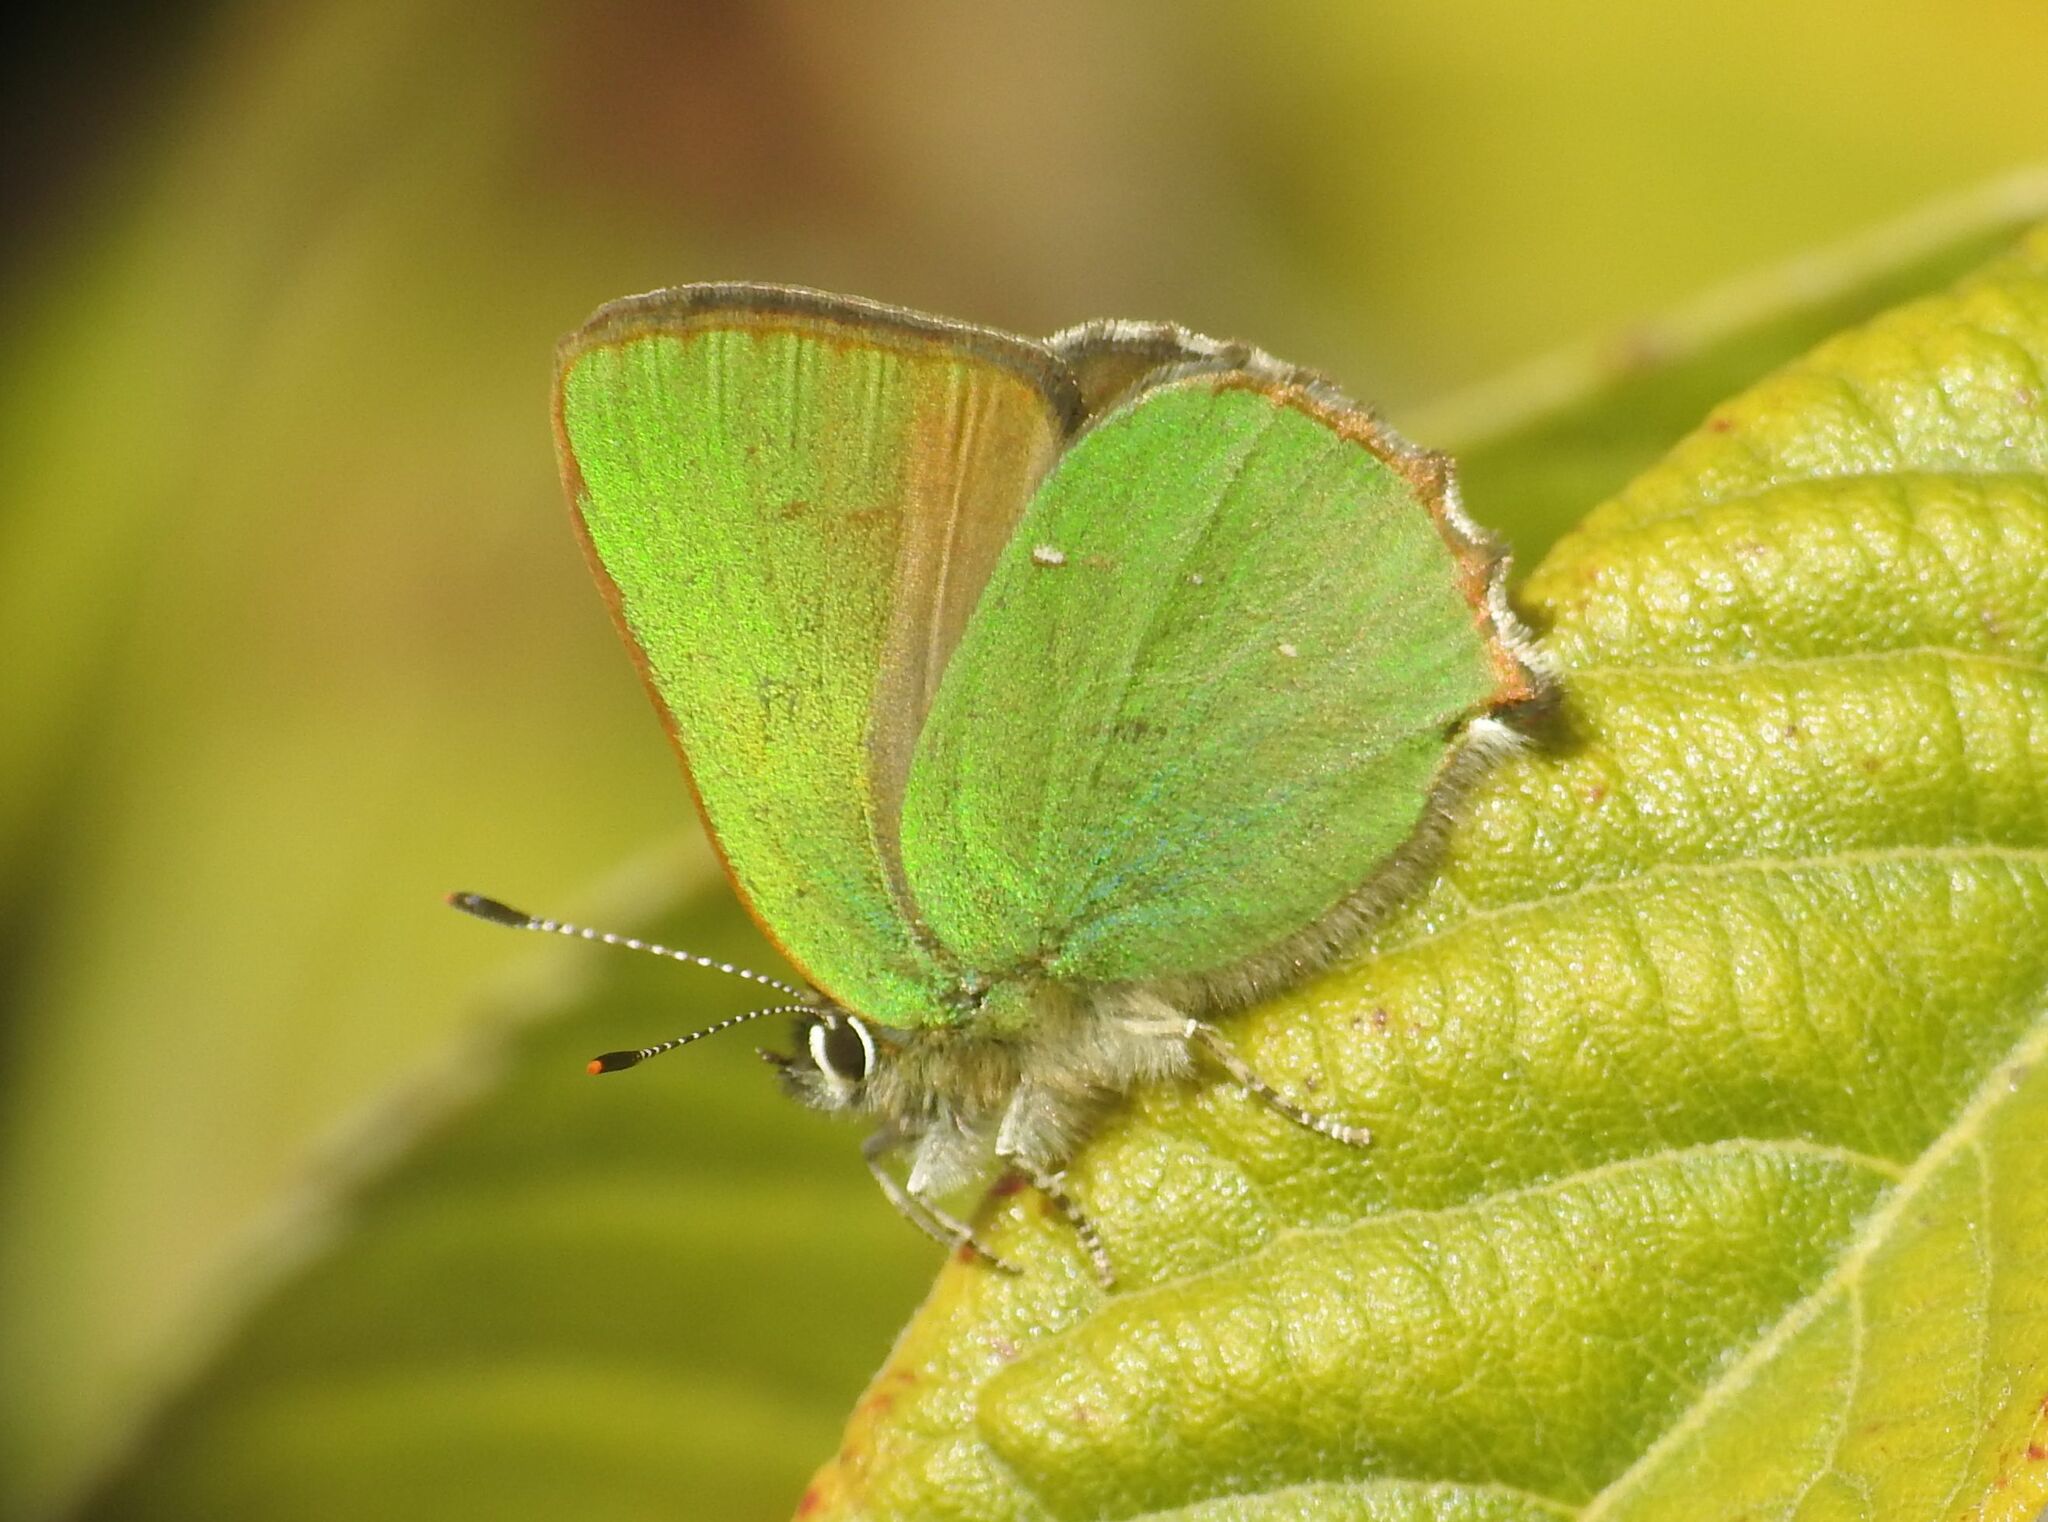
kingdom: Animalia
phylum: Arthropoda
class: Insecta
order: Lepidoptera
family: Lycaenidae
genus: Callophrys
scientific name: Callophrys rubi
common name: Green hairstreak
